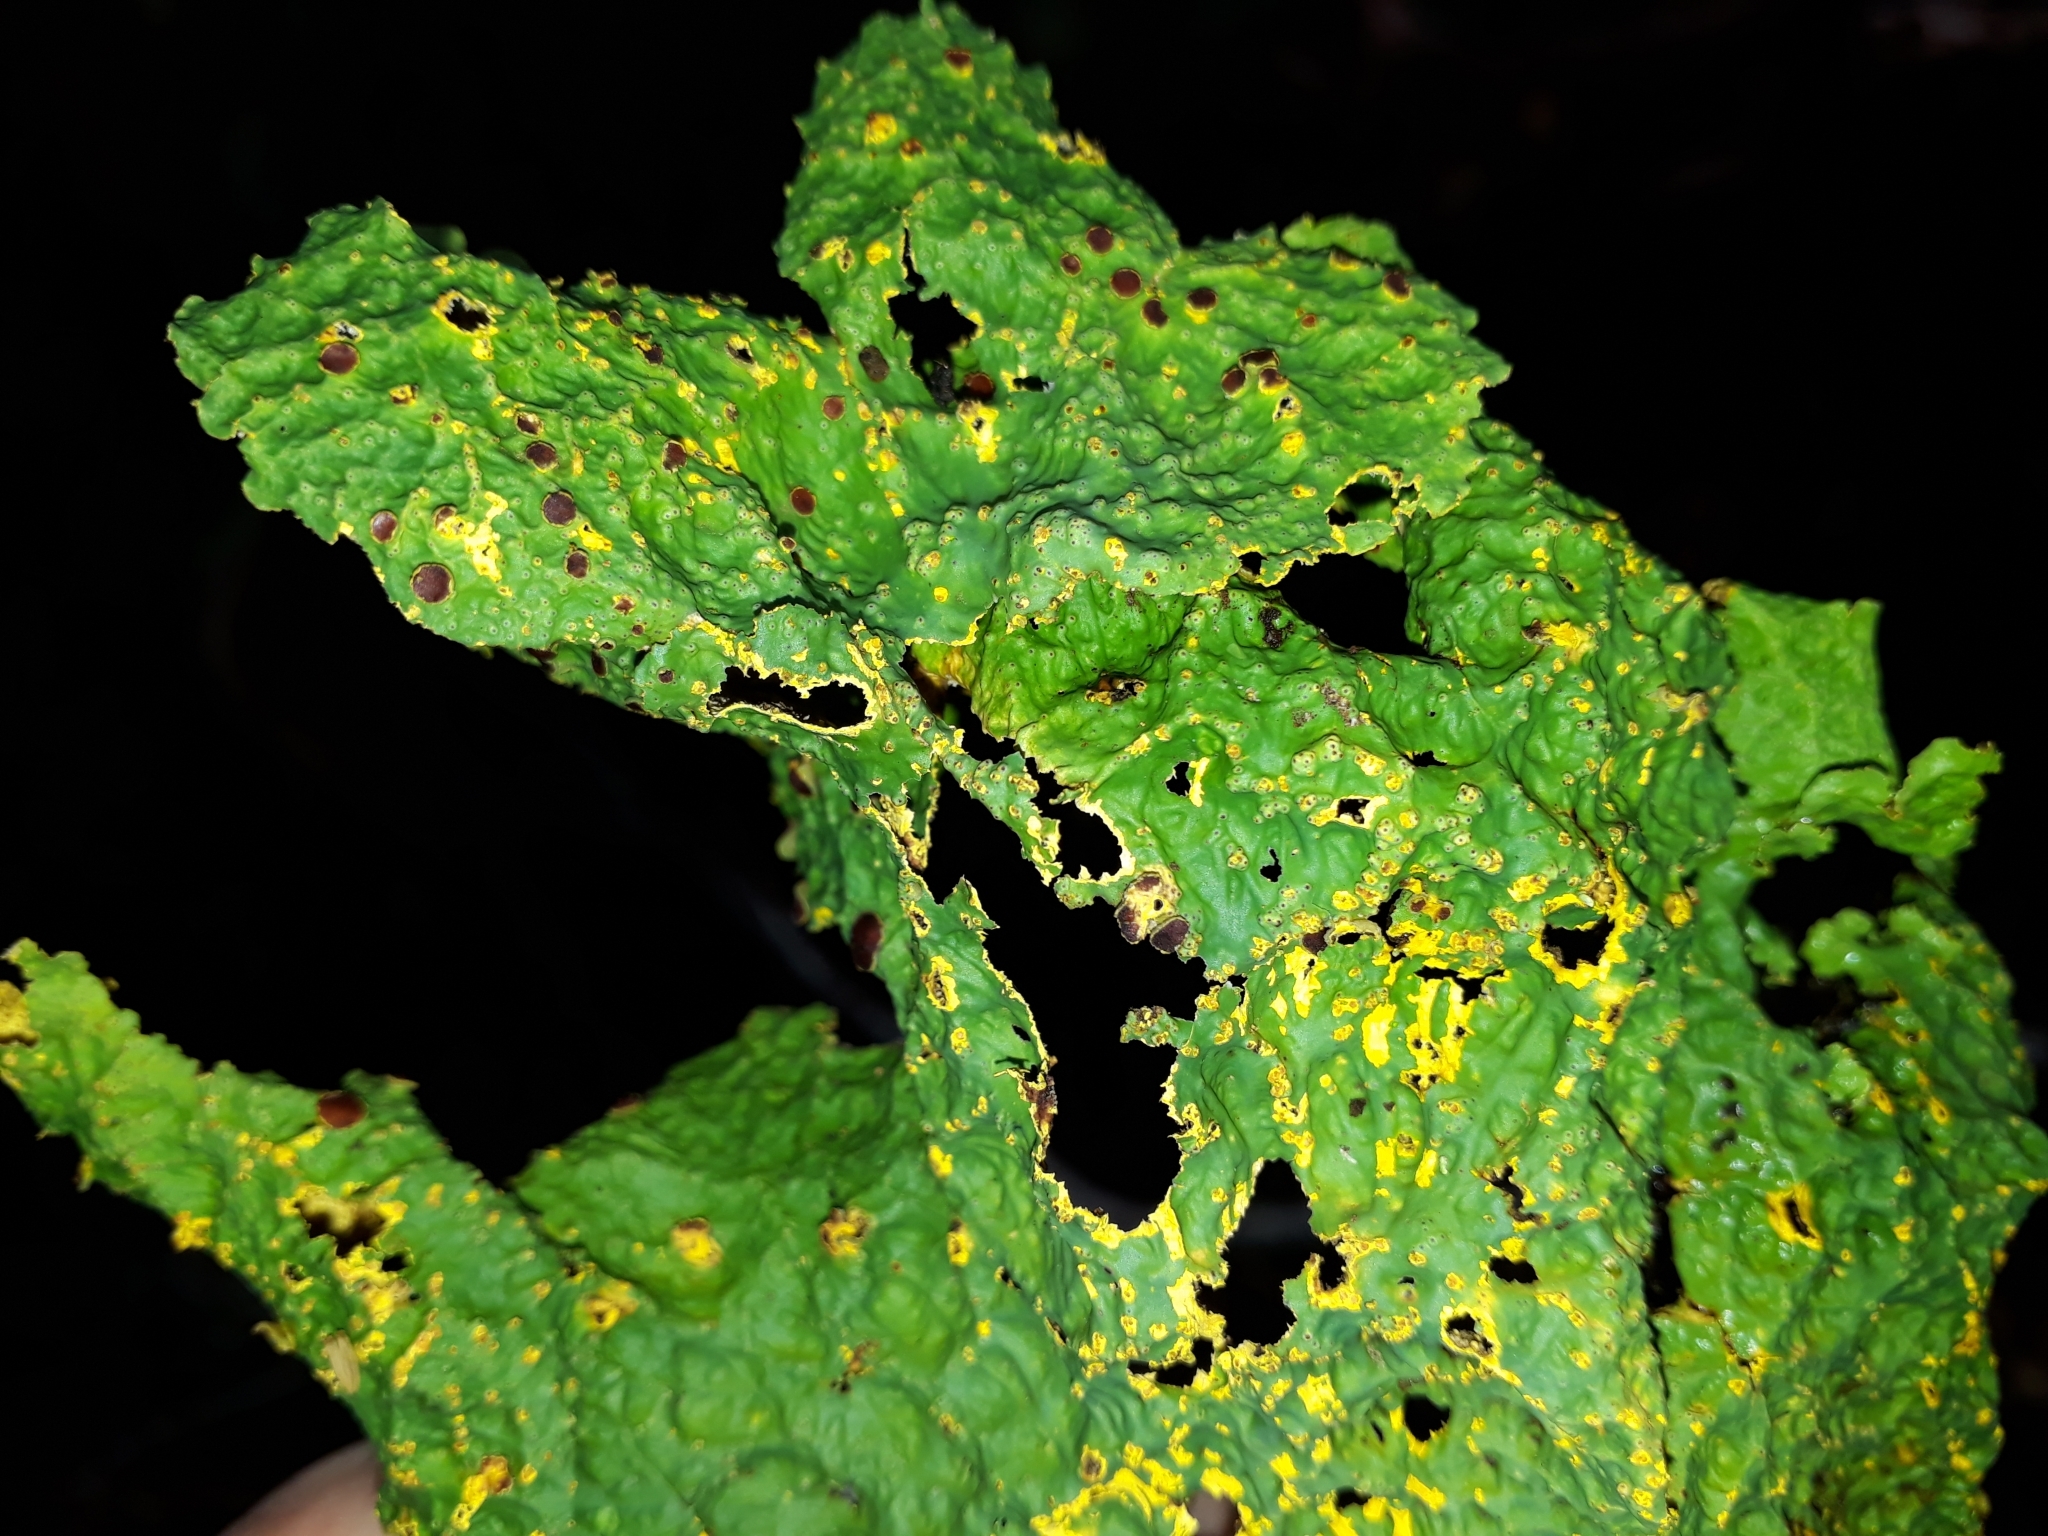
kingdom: Fungi
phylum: Ascomycota
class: Lecanoromycetes
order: Peltigerales
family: Lobariaceae
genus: Yarrumia
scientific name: Yarrumia coronata
